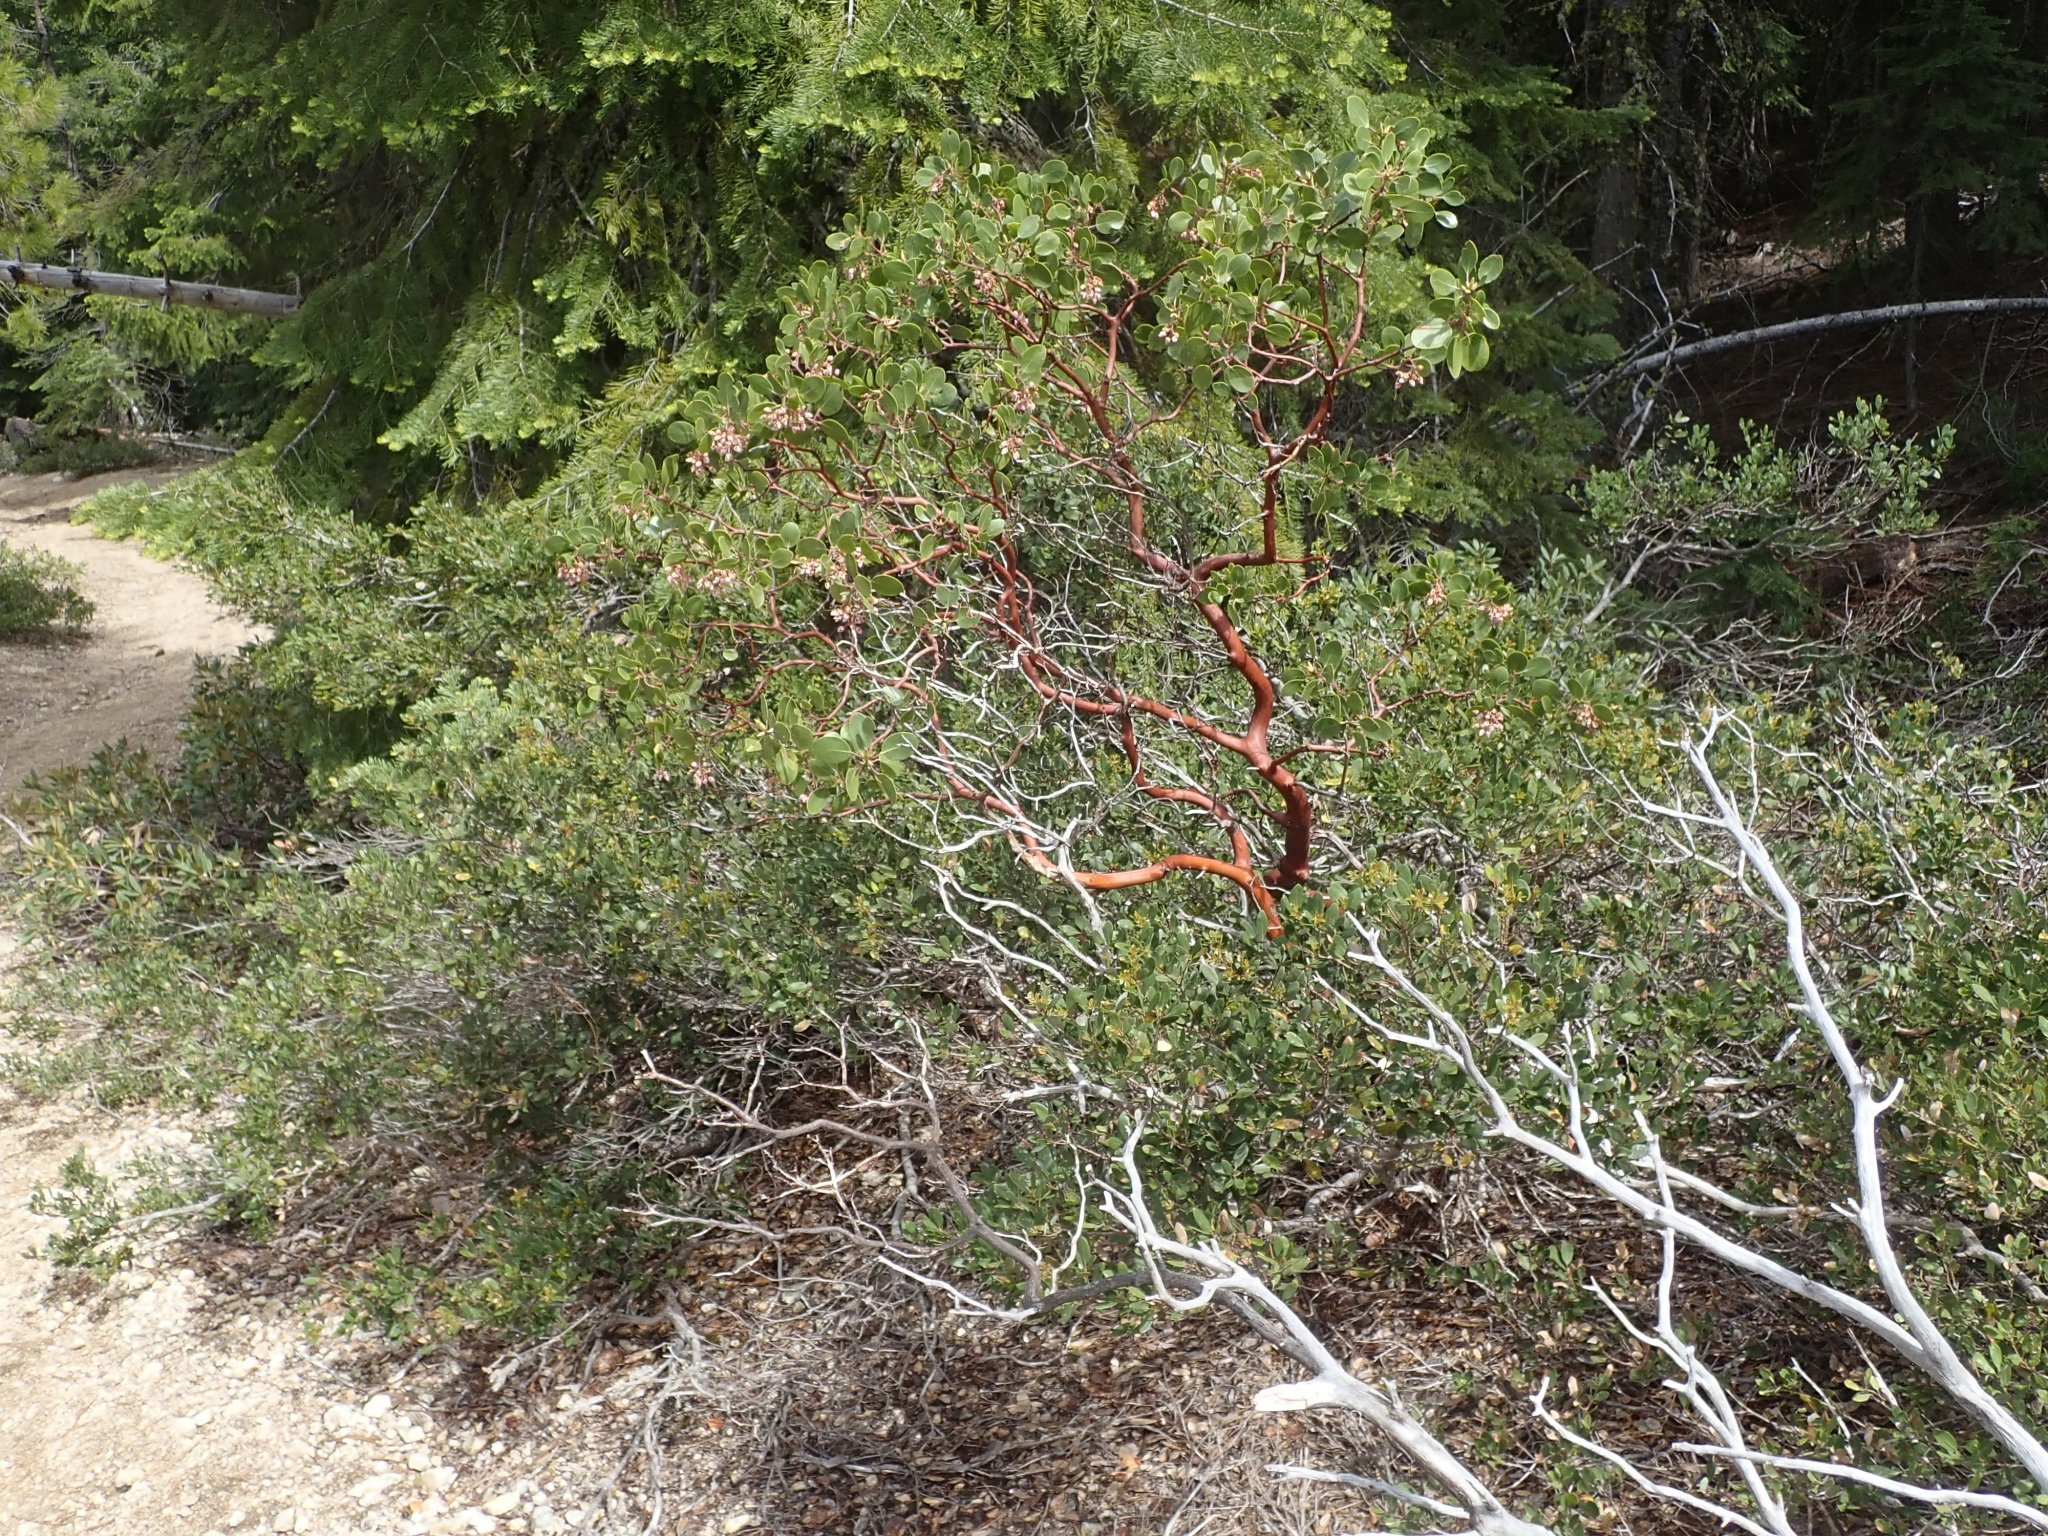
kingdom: Plantae
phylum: Tracheophyta
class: Magnoliopsida
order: Ericales
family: Ericaceae
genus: Arctostaphylos
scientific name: Arctostaphylos patula
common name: Green-leaf manzanita
